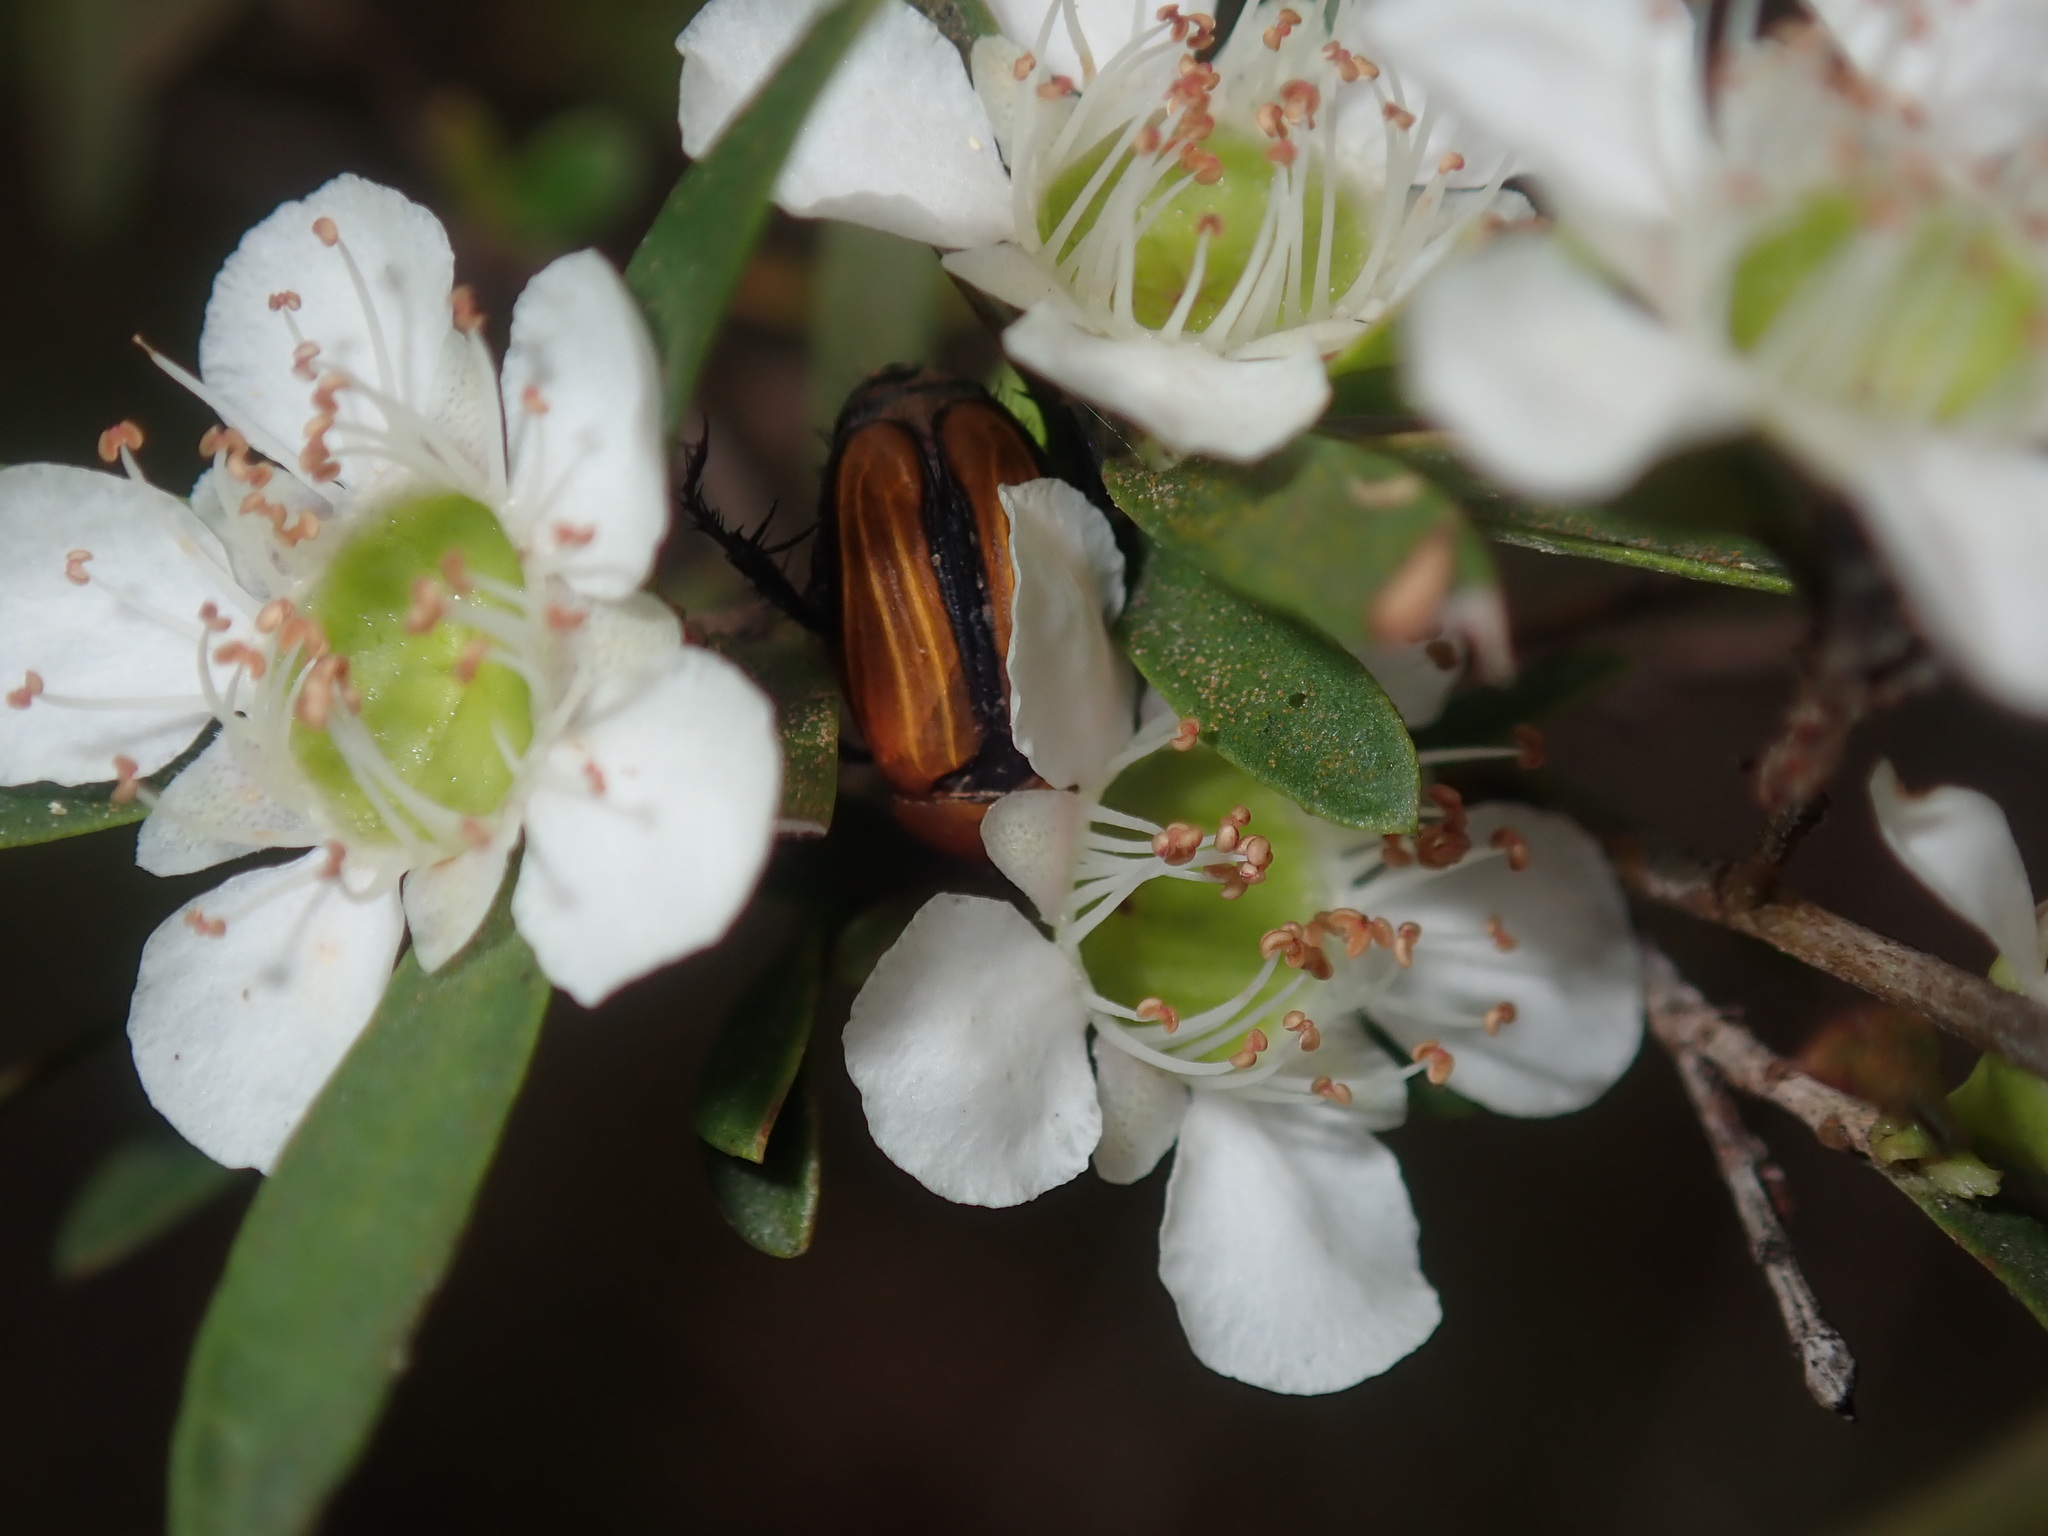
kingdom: Animalia
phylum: Arthropoda
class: Insecta
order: Coleoptera
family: Scarabaeidae
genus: Phyllotocus
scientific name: Phyllotocus scutellaris
